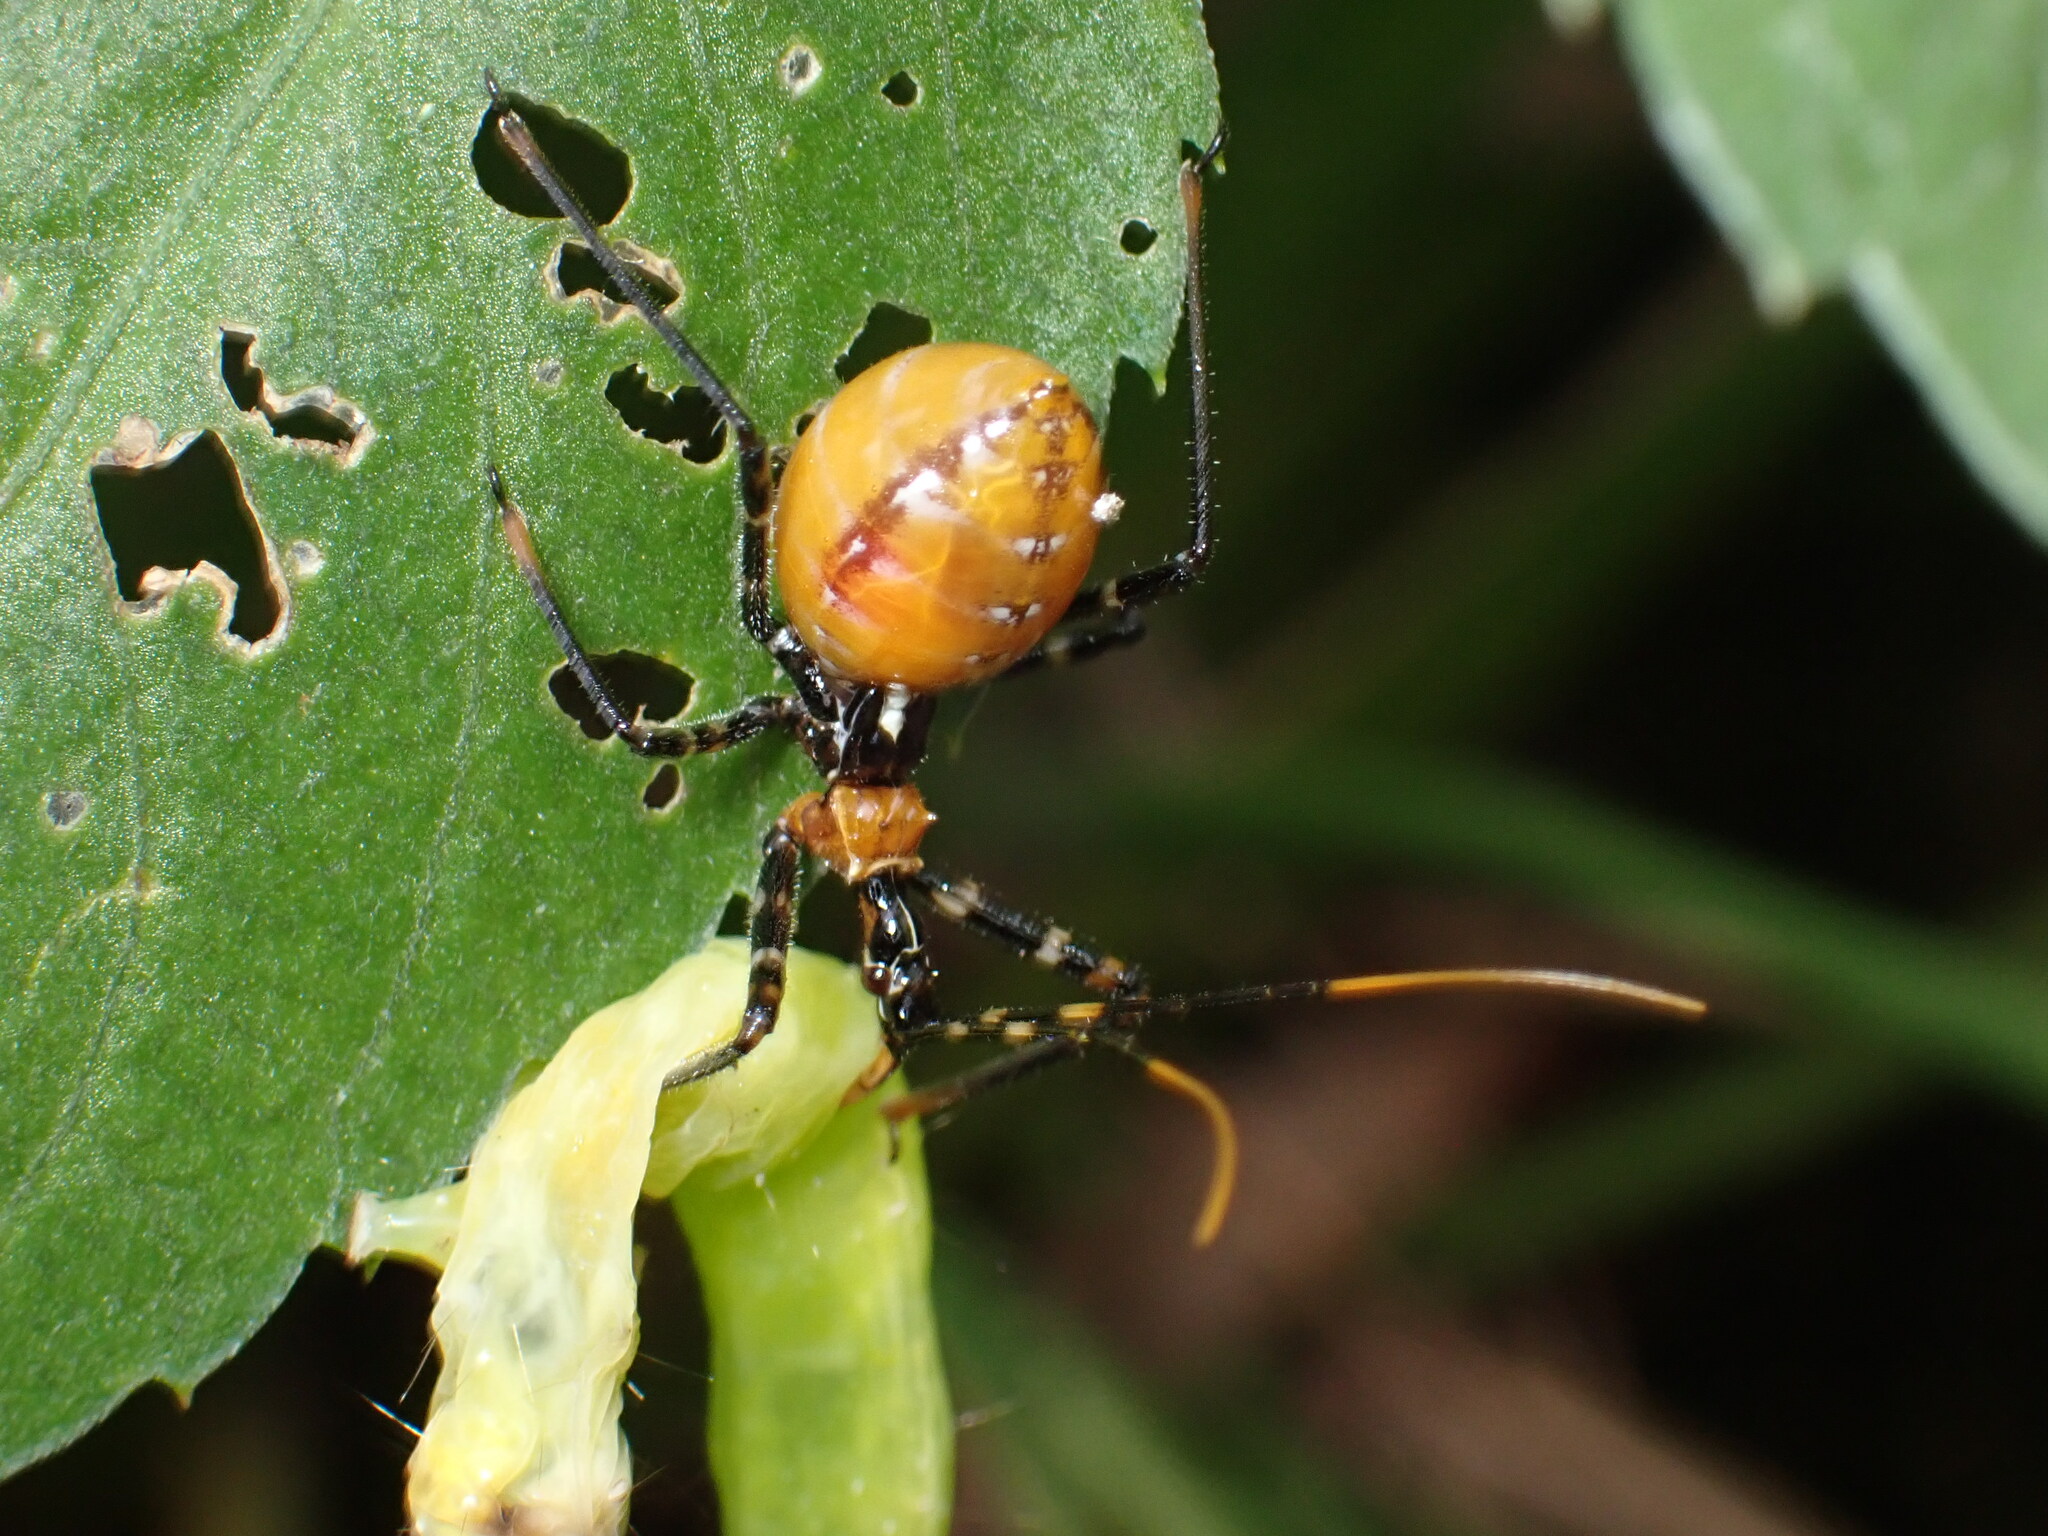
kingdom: Animalia
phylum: Arthropoda
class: Insecta
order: Hemiptera
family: Reduviidae
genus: Pristhesancus
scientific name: Pristhesancus plagipennis
